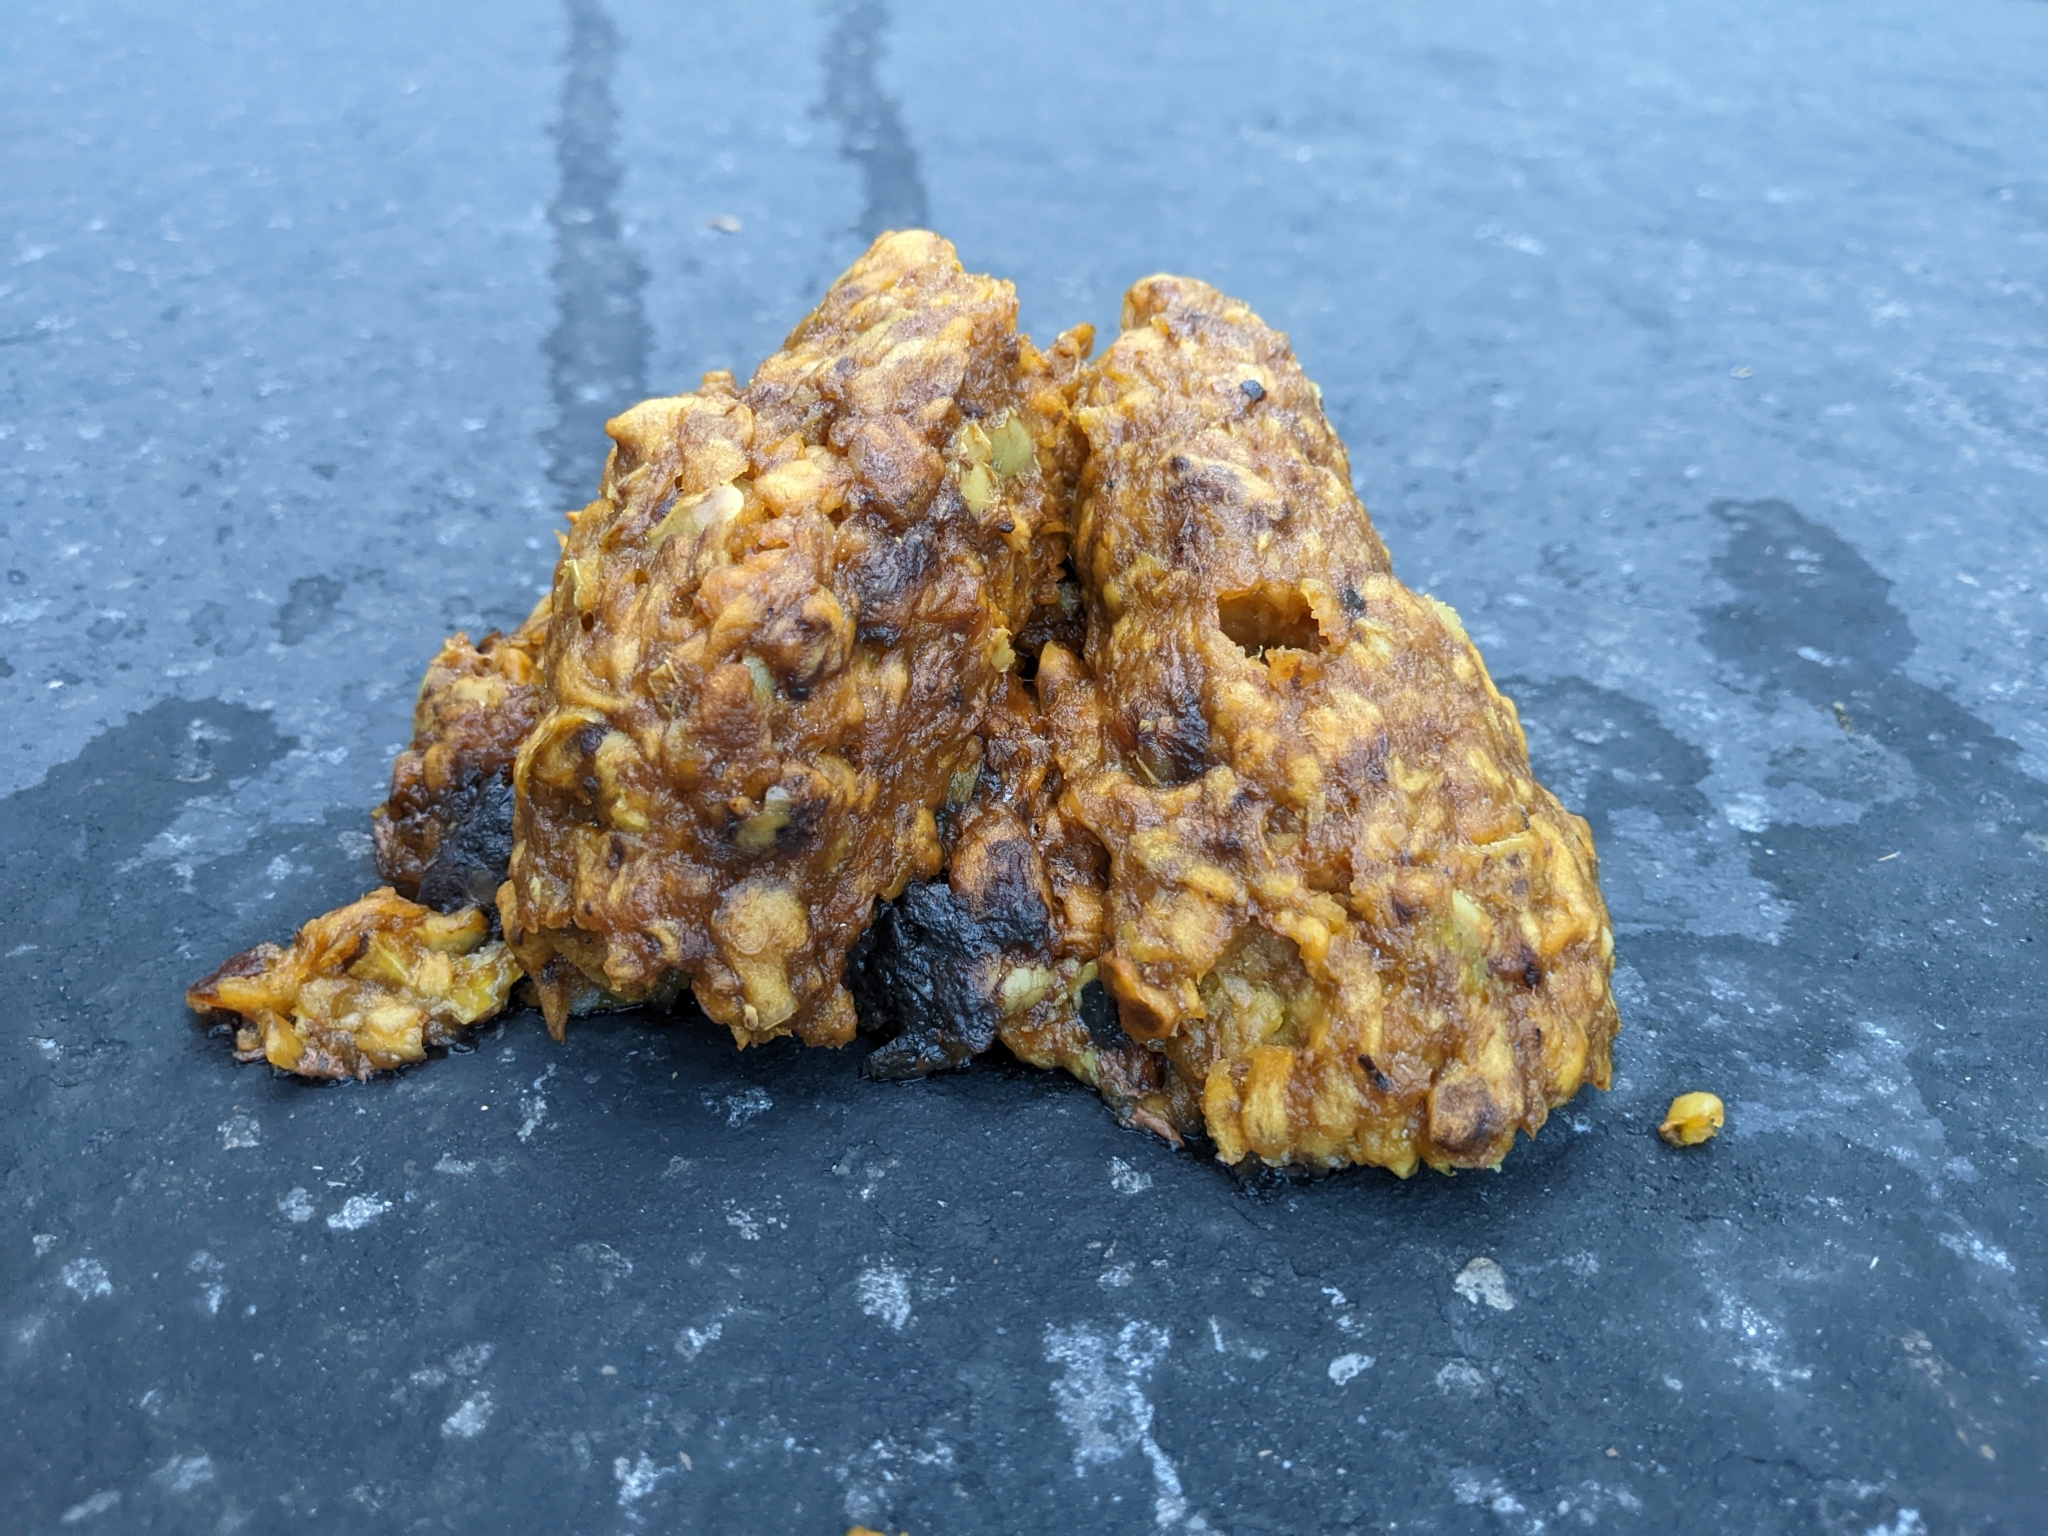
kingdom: Animalia
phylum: Chordata
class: Mammalia
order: Carnivora
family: Ursidae
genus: Ursus
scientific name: Ursus americanus
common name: American black bear
